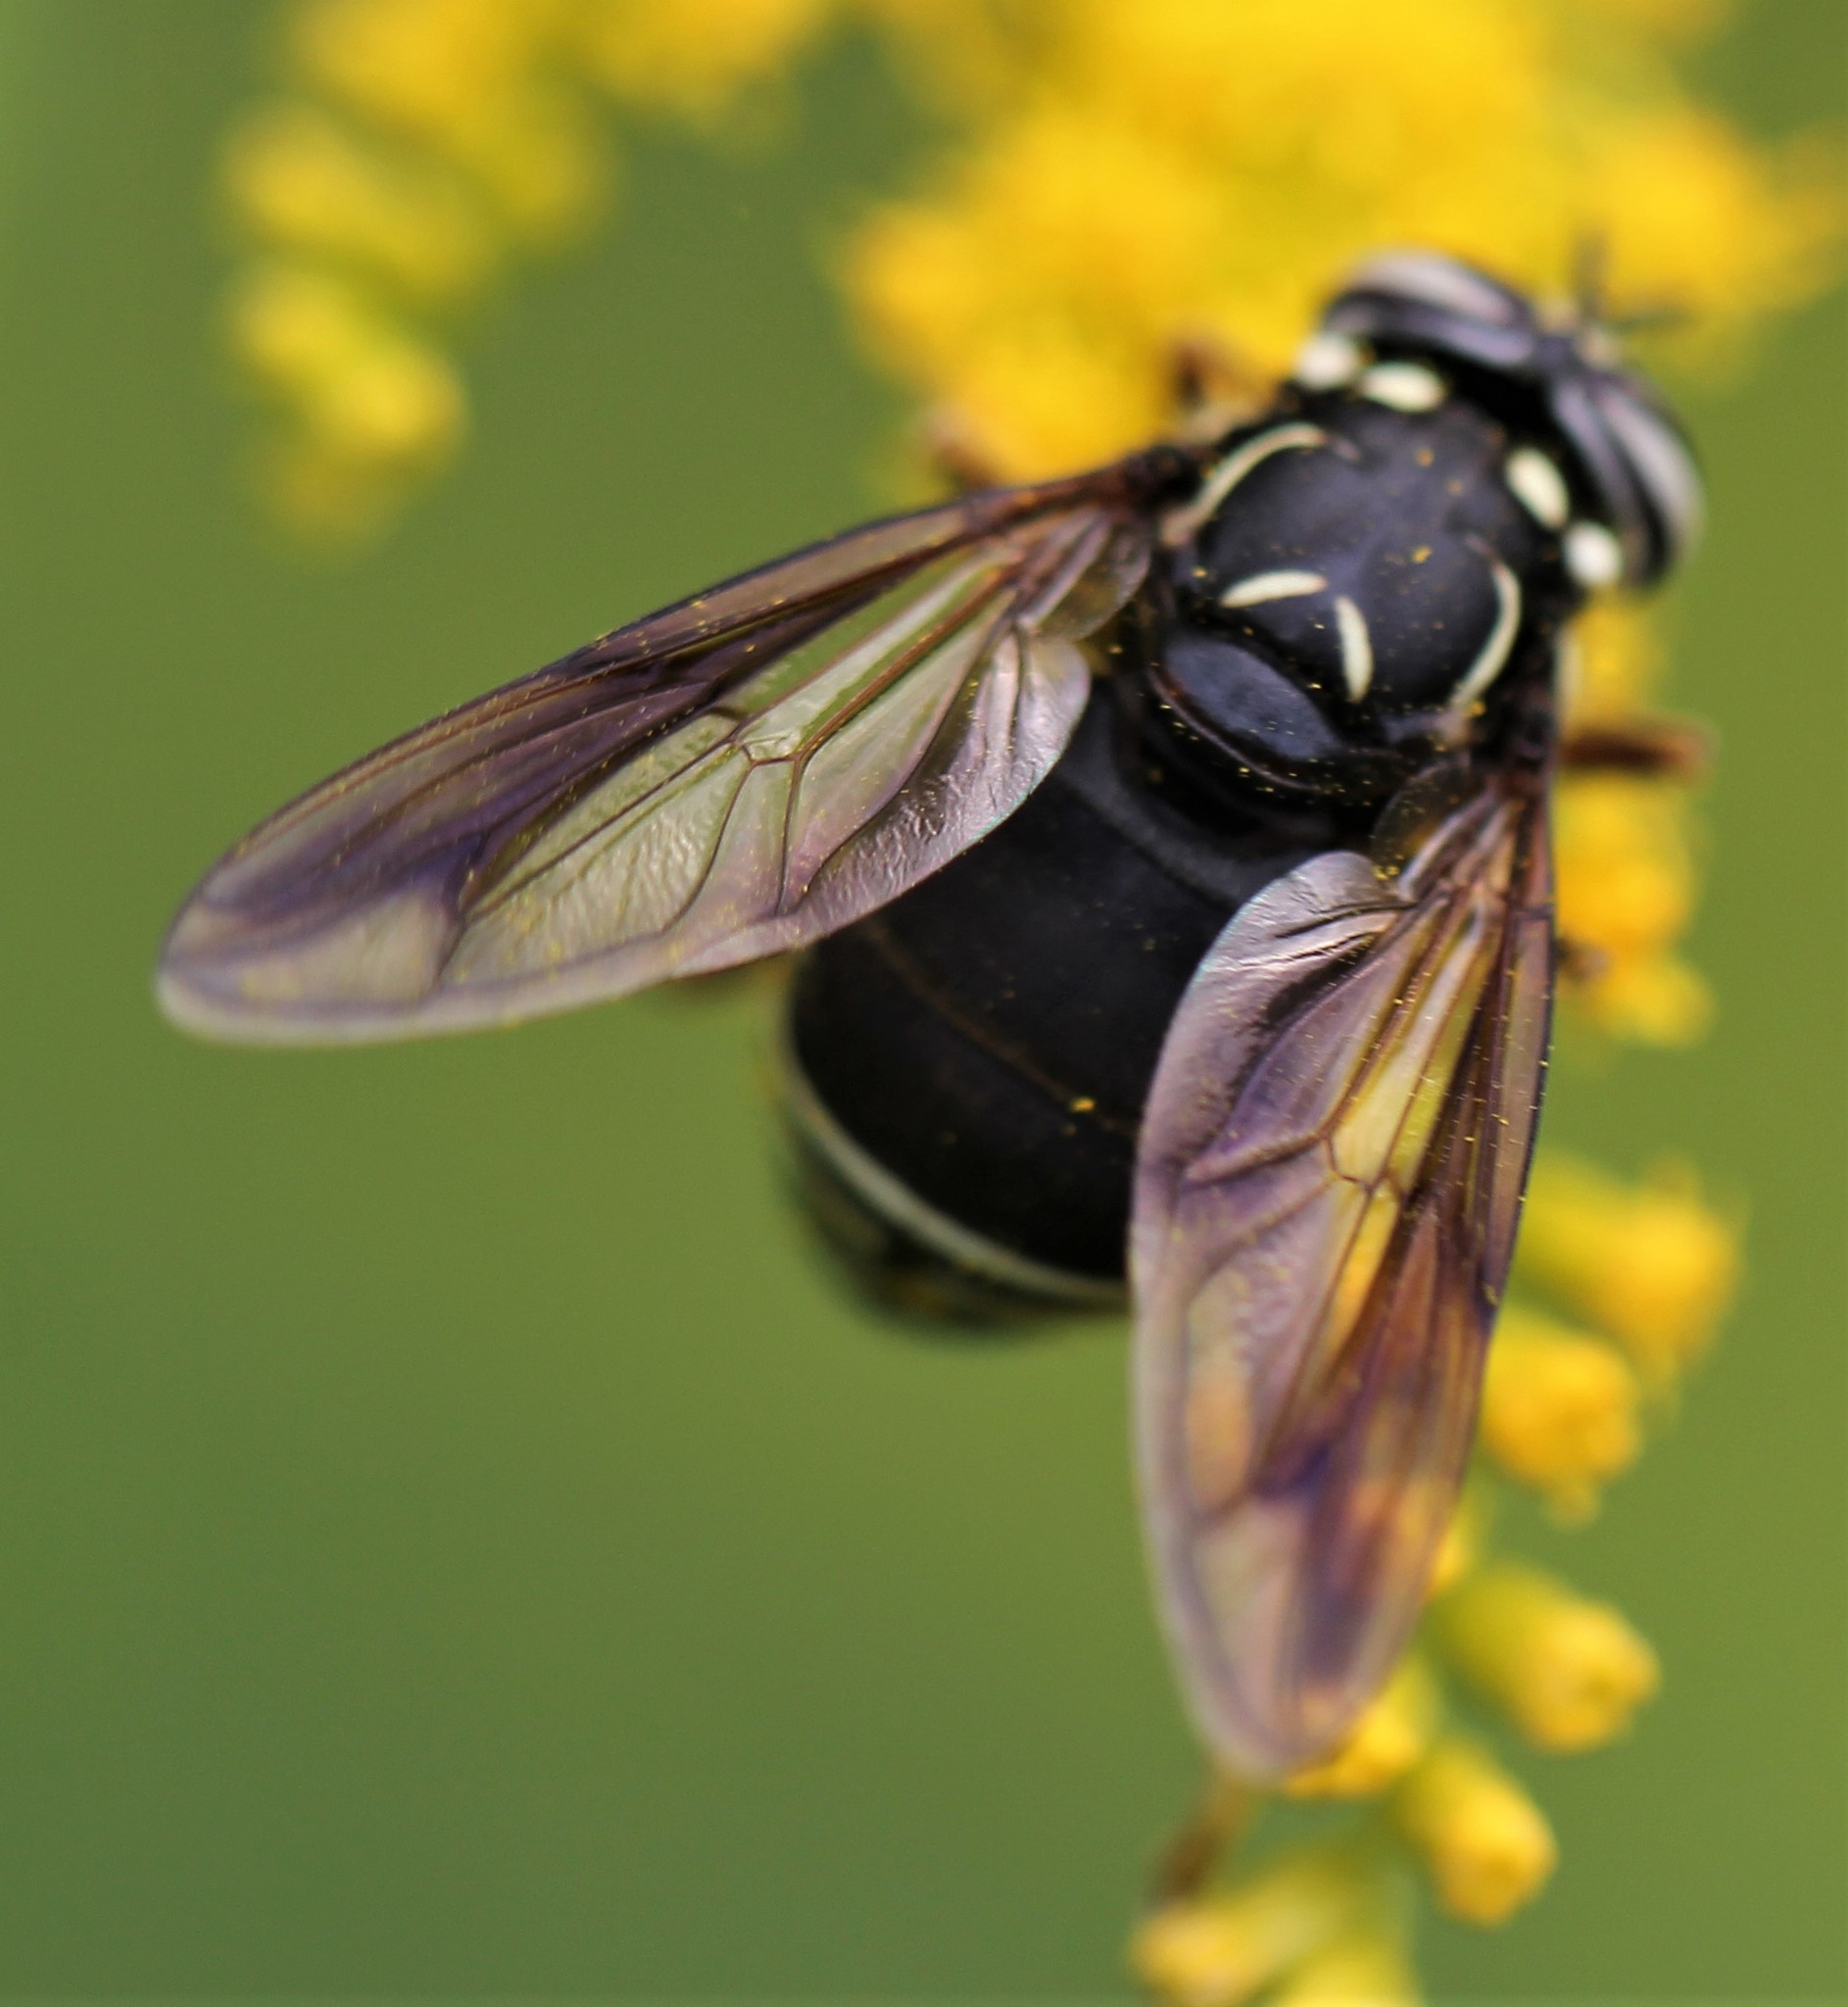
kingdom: Animalia
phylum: Arthropoda
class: Insecta
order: Diptera
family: Syrphidae
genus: Spilomyia
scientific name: Spilomyia fusca
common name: Bald-faced hornet fly
